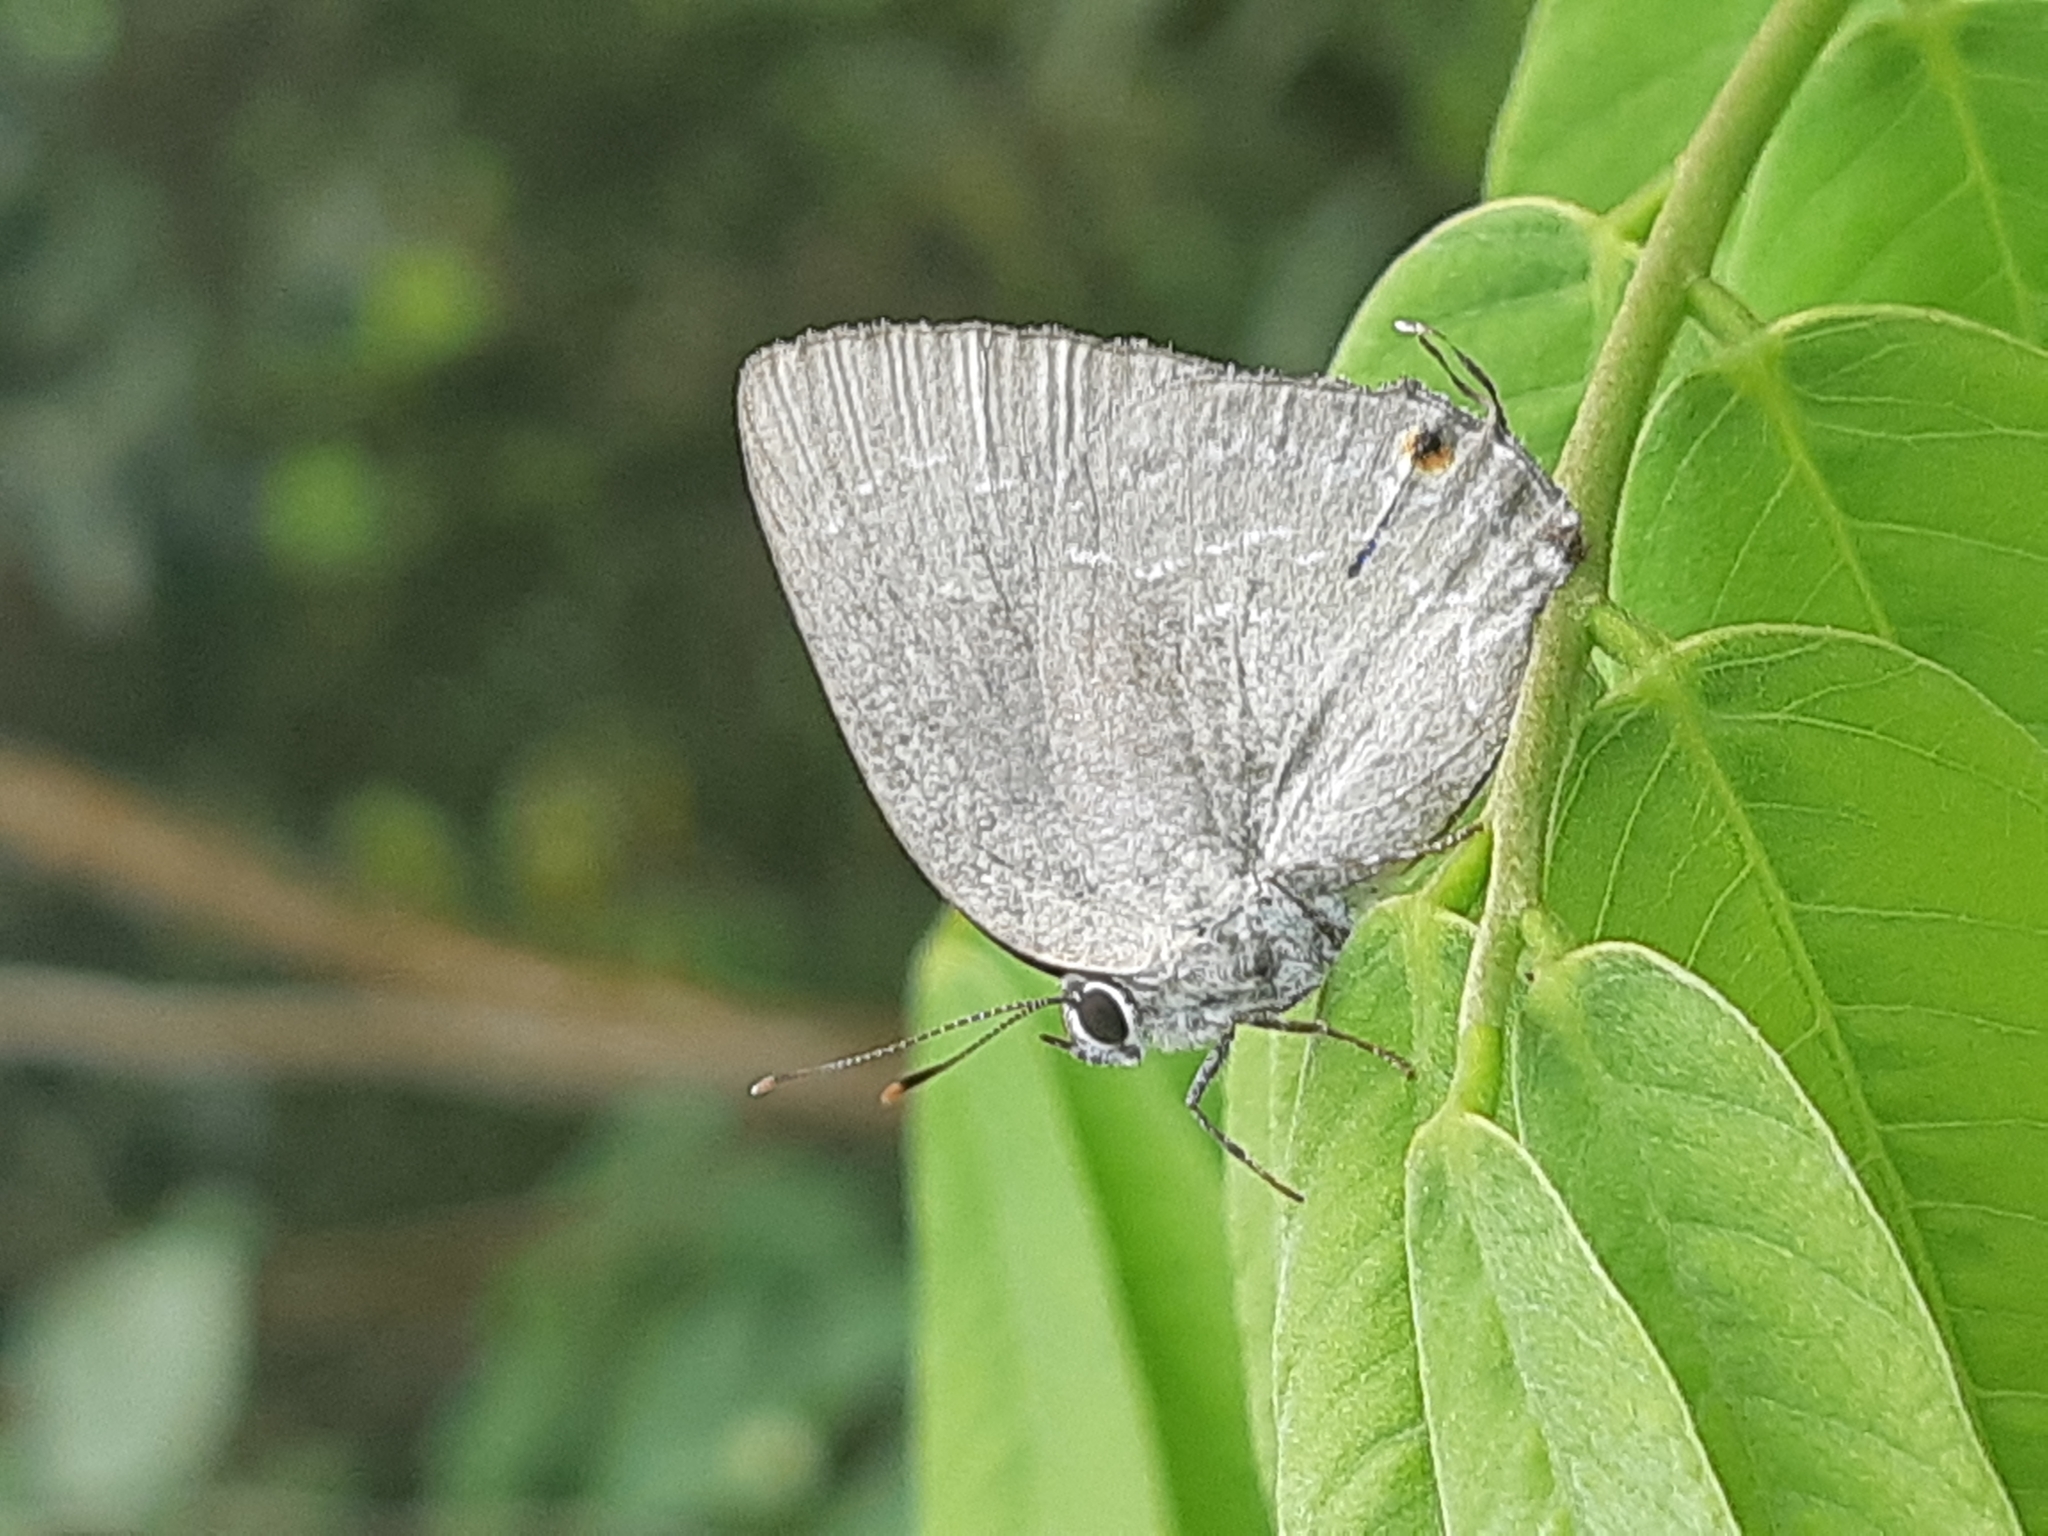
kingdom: Animalia
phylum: Arthropoda
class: Insecta
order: Lepidoptera
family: Lycaenidae
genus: Strephonota
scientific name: Strephonota tephraeus
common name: Pearly-gray hairstreak
